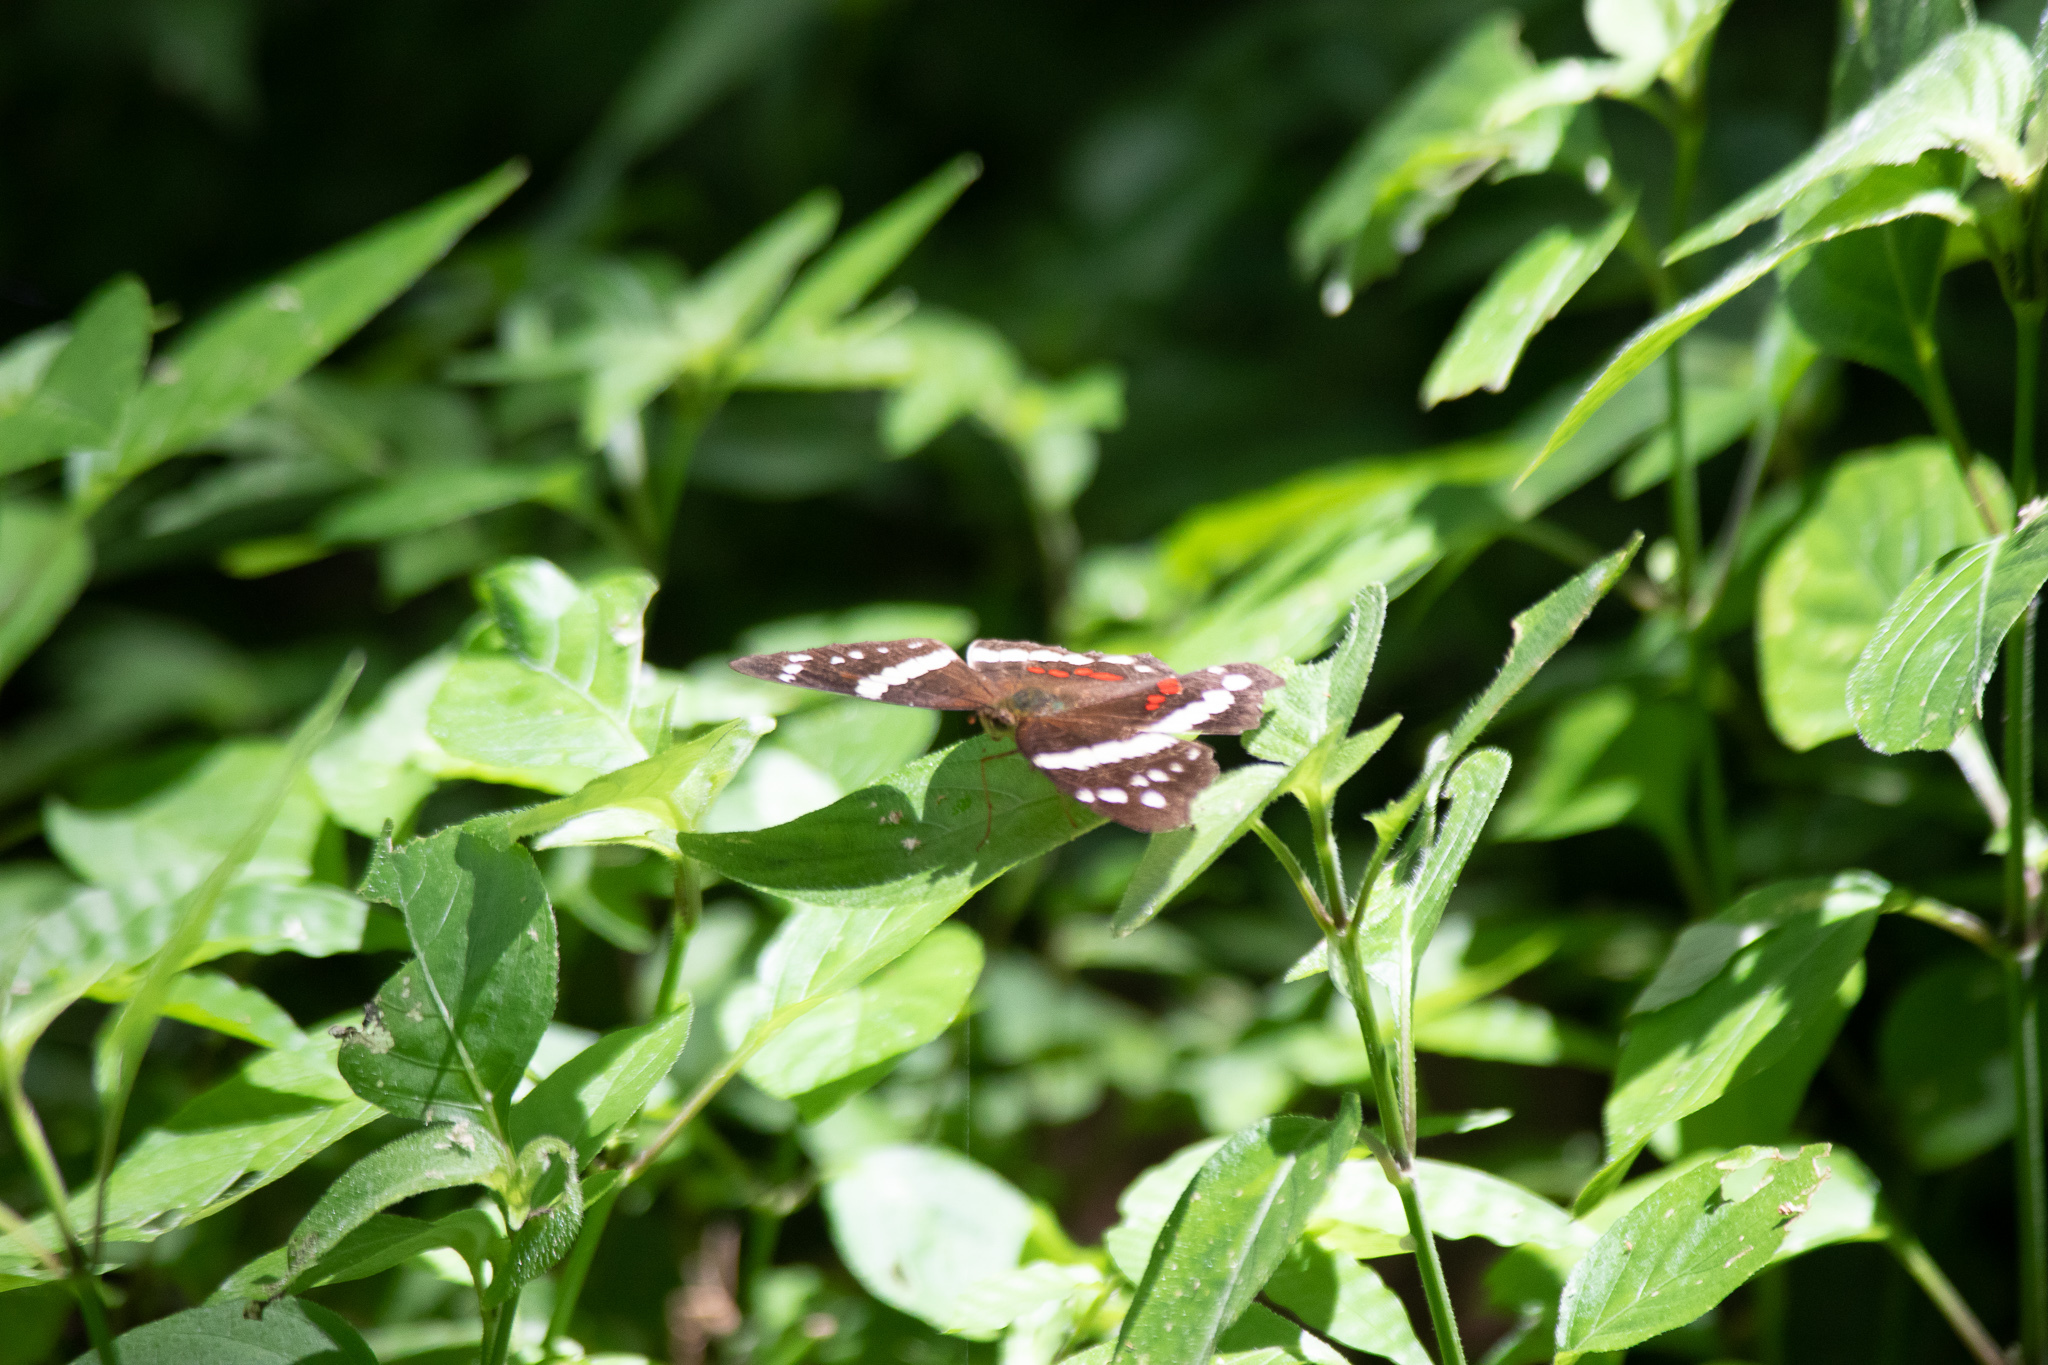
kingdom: Animalia
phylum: Arthropoda
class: Insecta
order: Lepidoptera
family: Nymphalidae
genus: Anartia
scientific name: Anartia fatima
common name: Banded peacock
